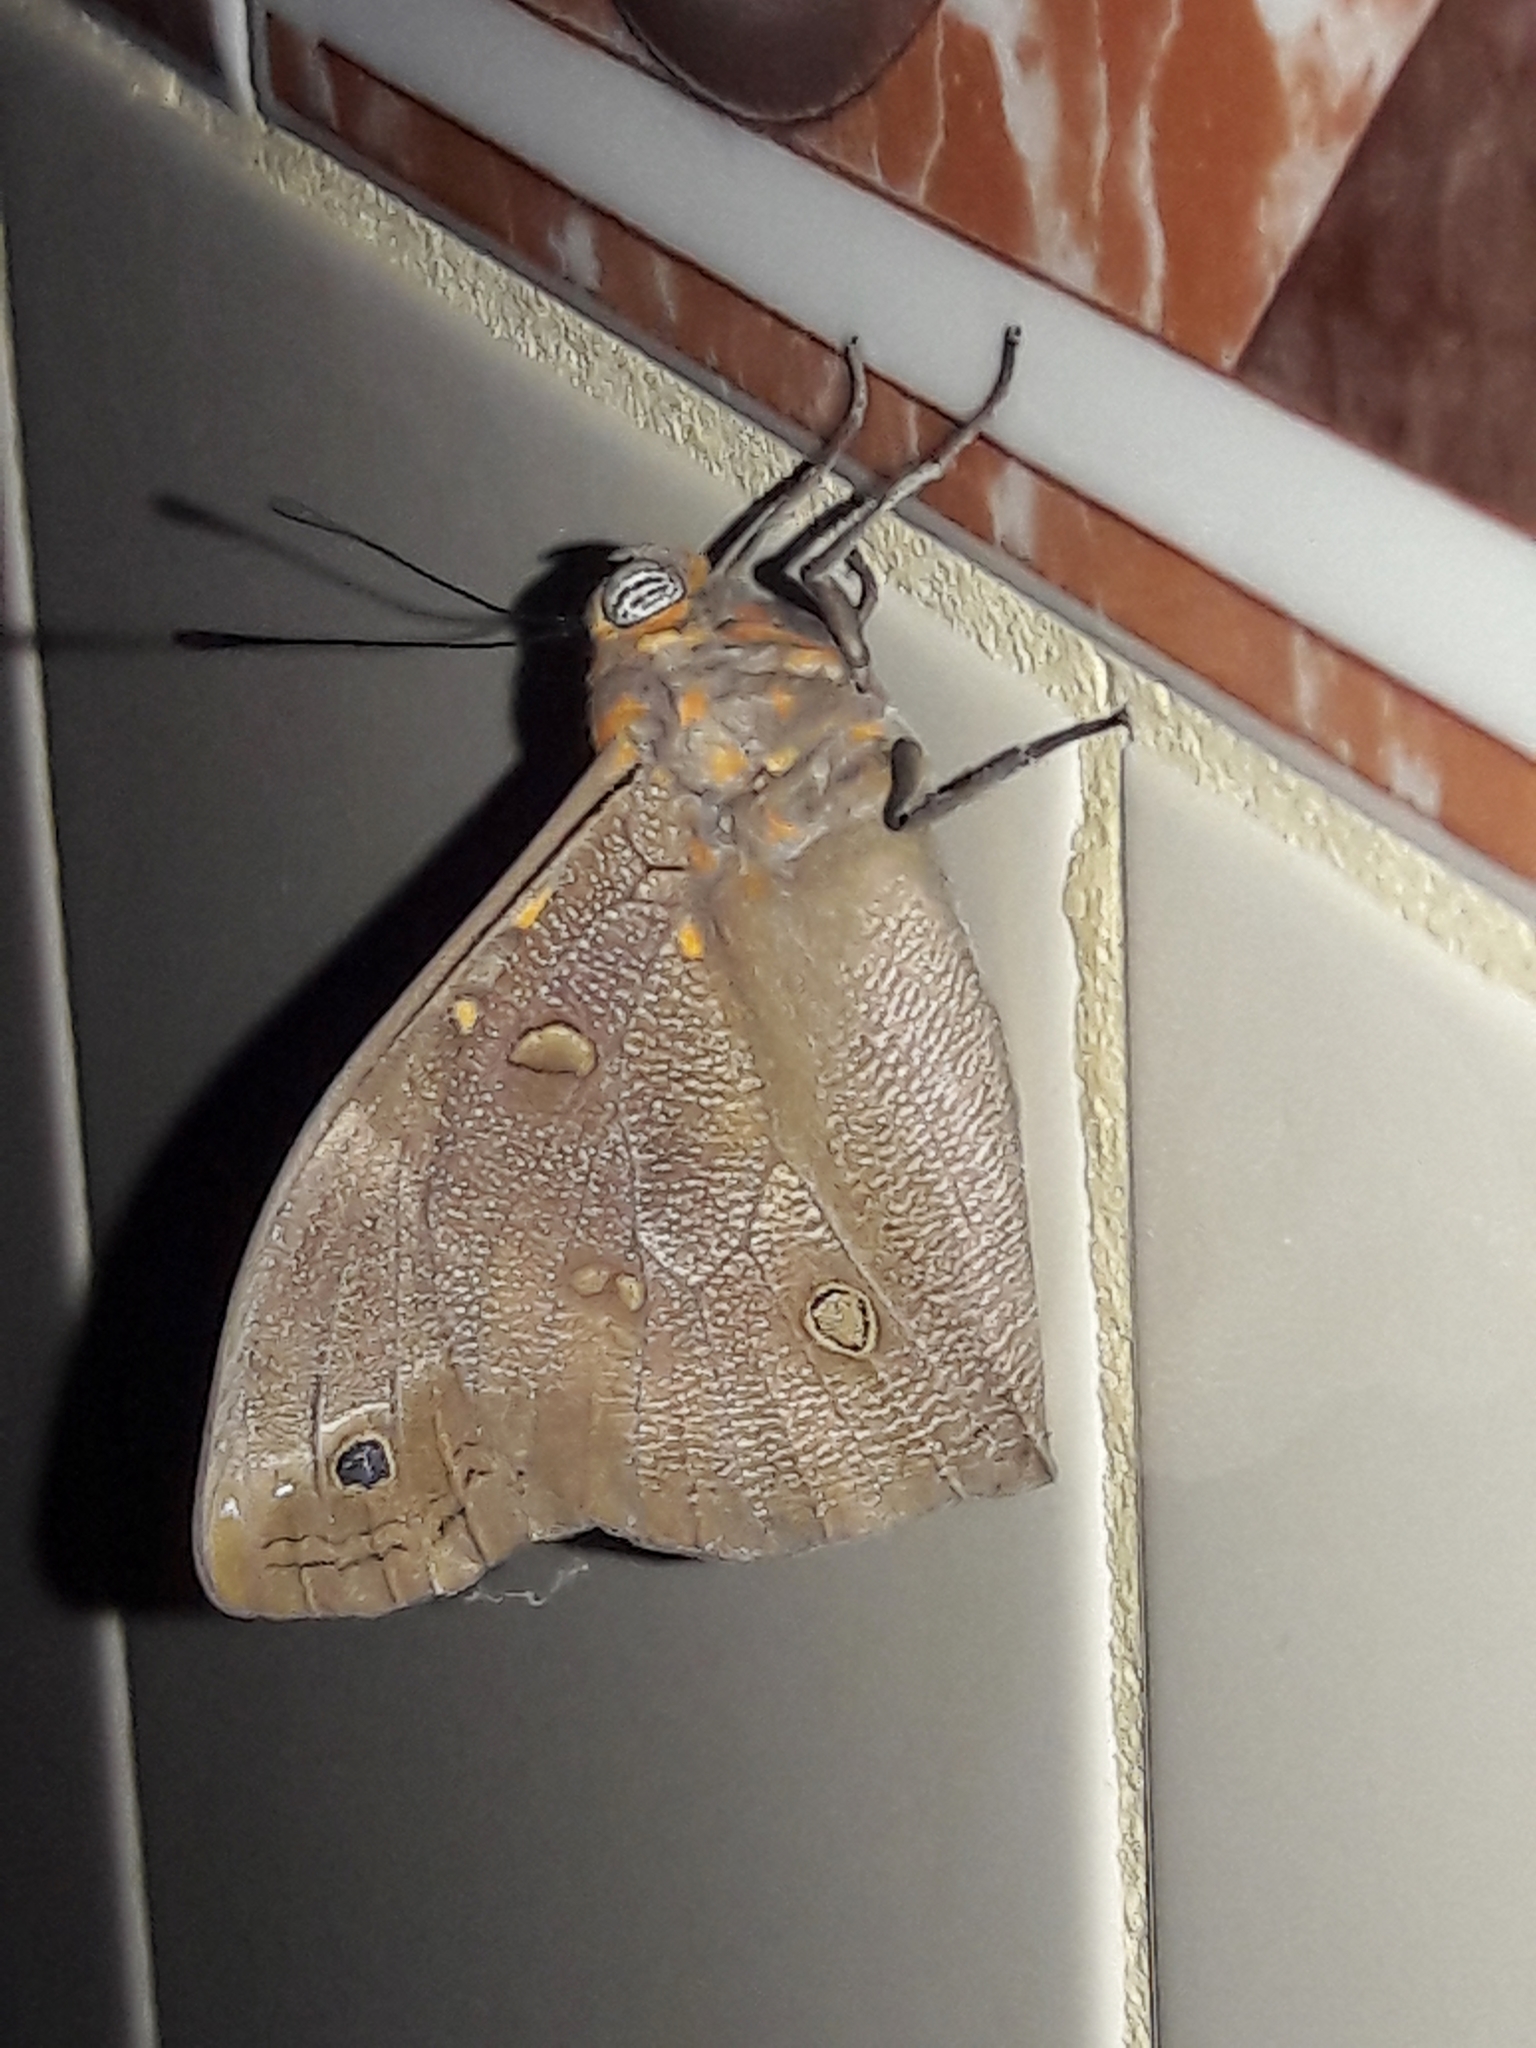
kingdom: Animalia
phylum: Arthropoda
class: Insecta
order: Lepidoptera
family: Nymphalidae
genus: Brassolis
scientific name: Brassolis sophorae
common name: Coconut caterpillar
